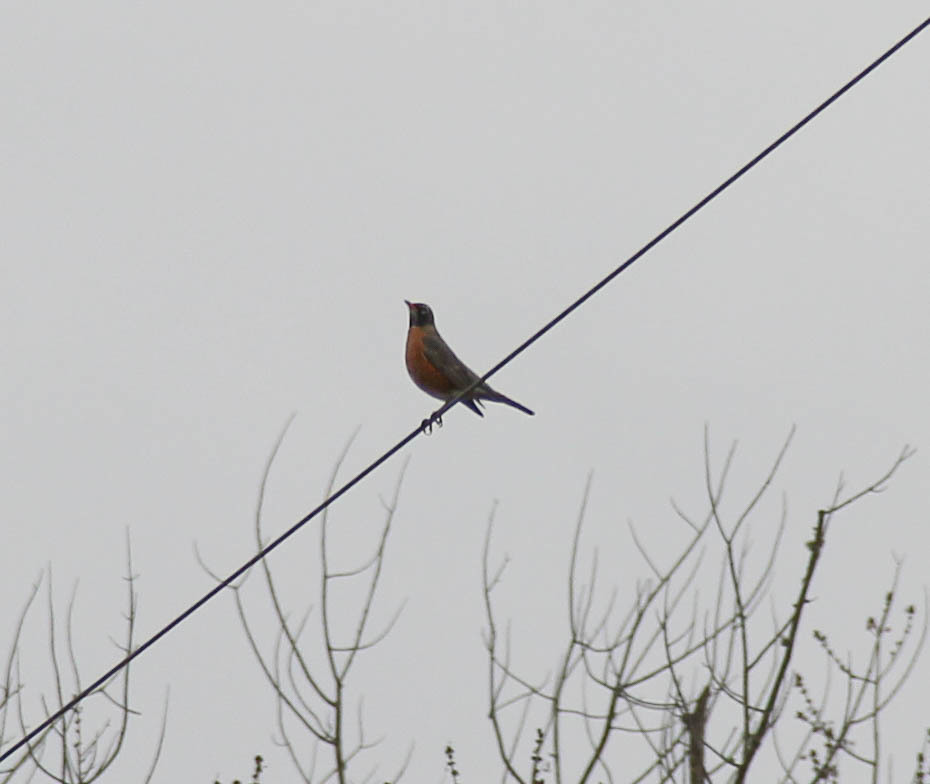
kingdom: Animalia
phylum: Chordata
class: Aves
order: Passeriformes
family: Turdidae
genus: Turdus
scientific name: Turdus migratorius
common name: American robin
